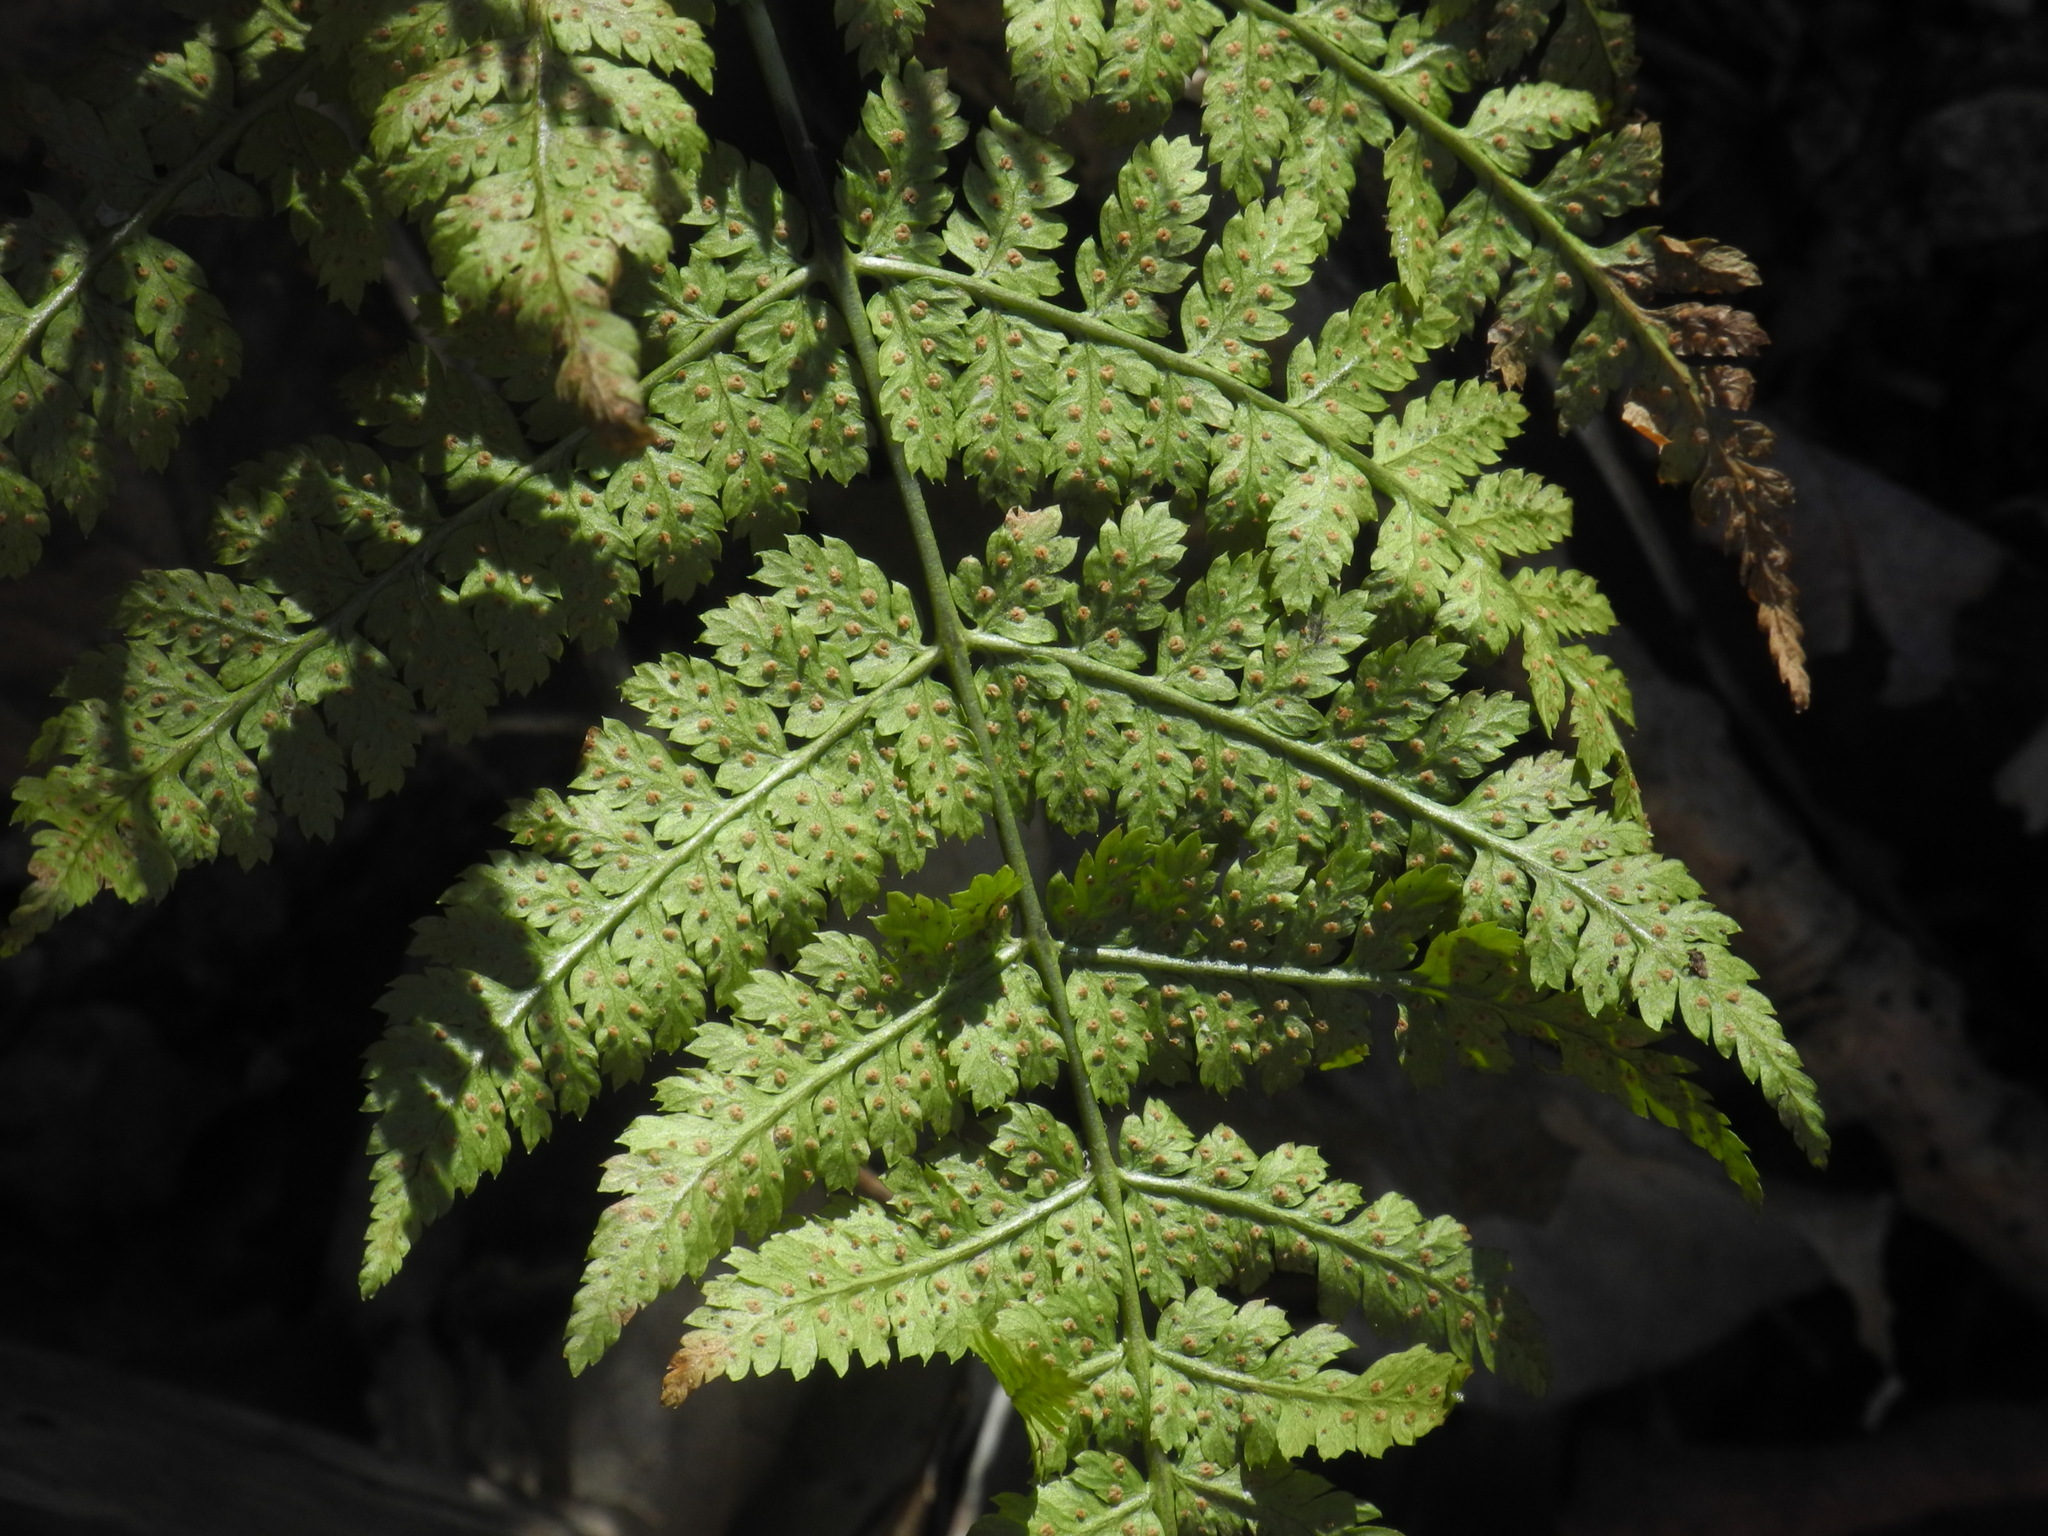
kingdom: Plantae
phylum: Tracheophyta
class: Polypodiopsida
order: Polypodiales
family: Dryopteridaceae
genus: Dryopteris
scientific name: Dryopteris intermedia
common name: Evergreen wood fern
